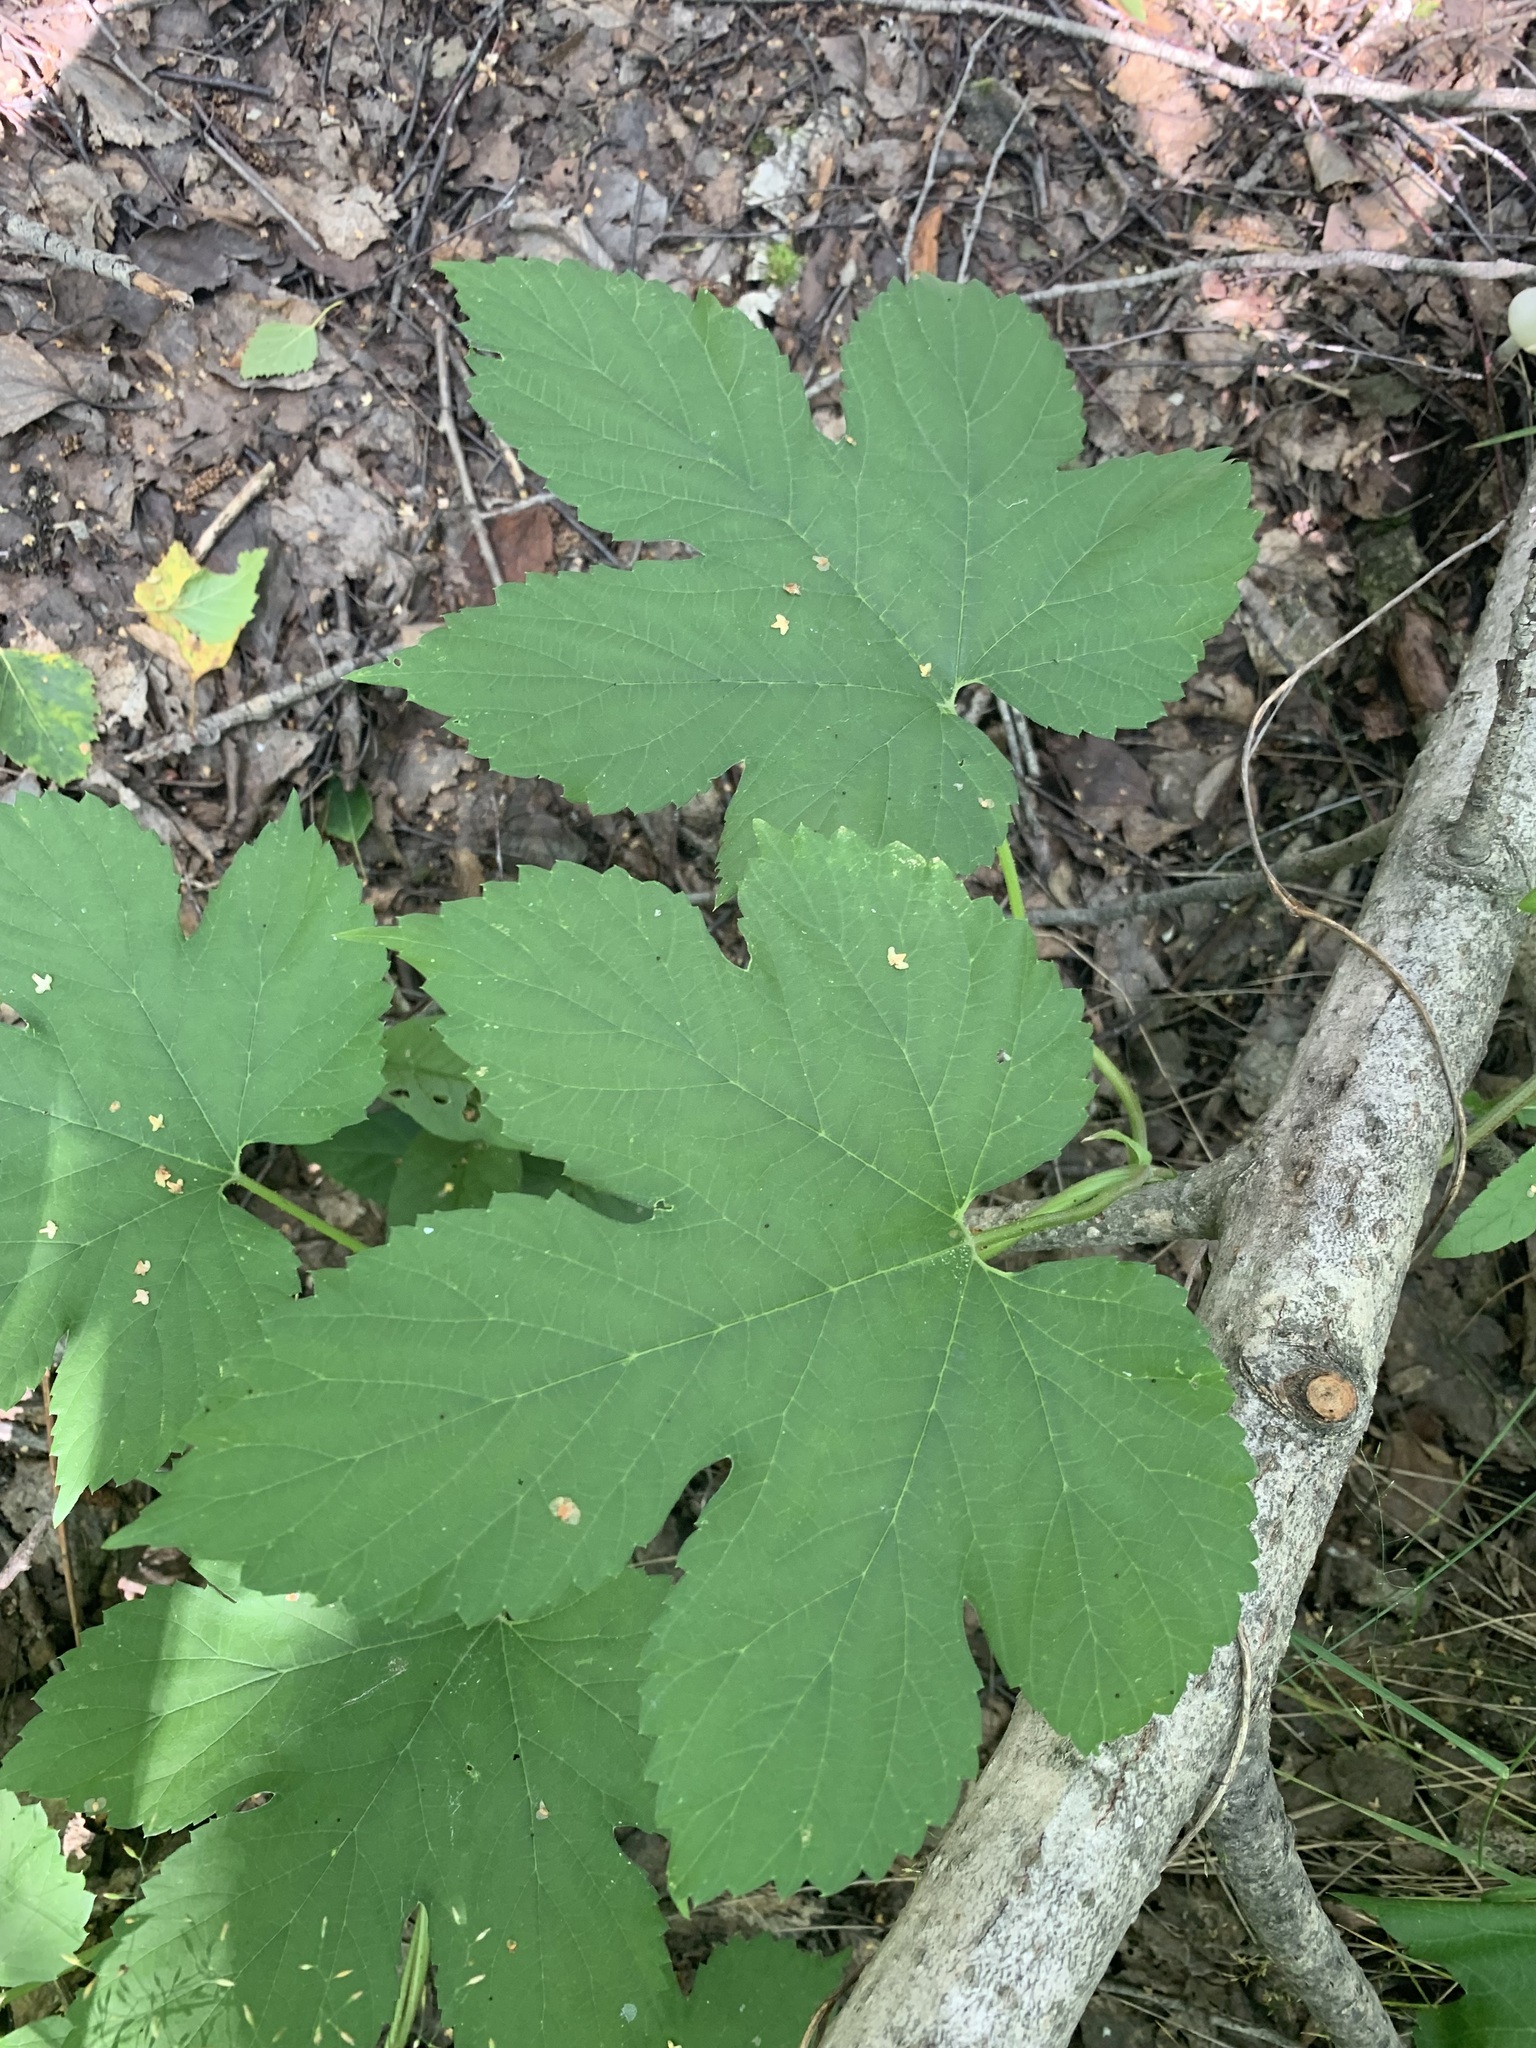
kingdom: Plantae
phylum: Tracheophyta
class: Magnoliopsida
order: Rosales
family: Cannabaceae
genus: Humulus
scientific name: Humulus lupulus
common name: Hop
